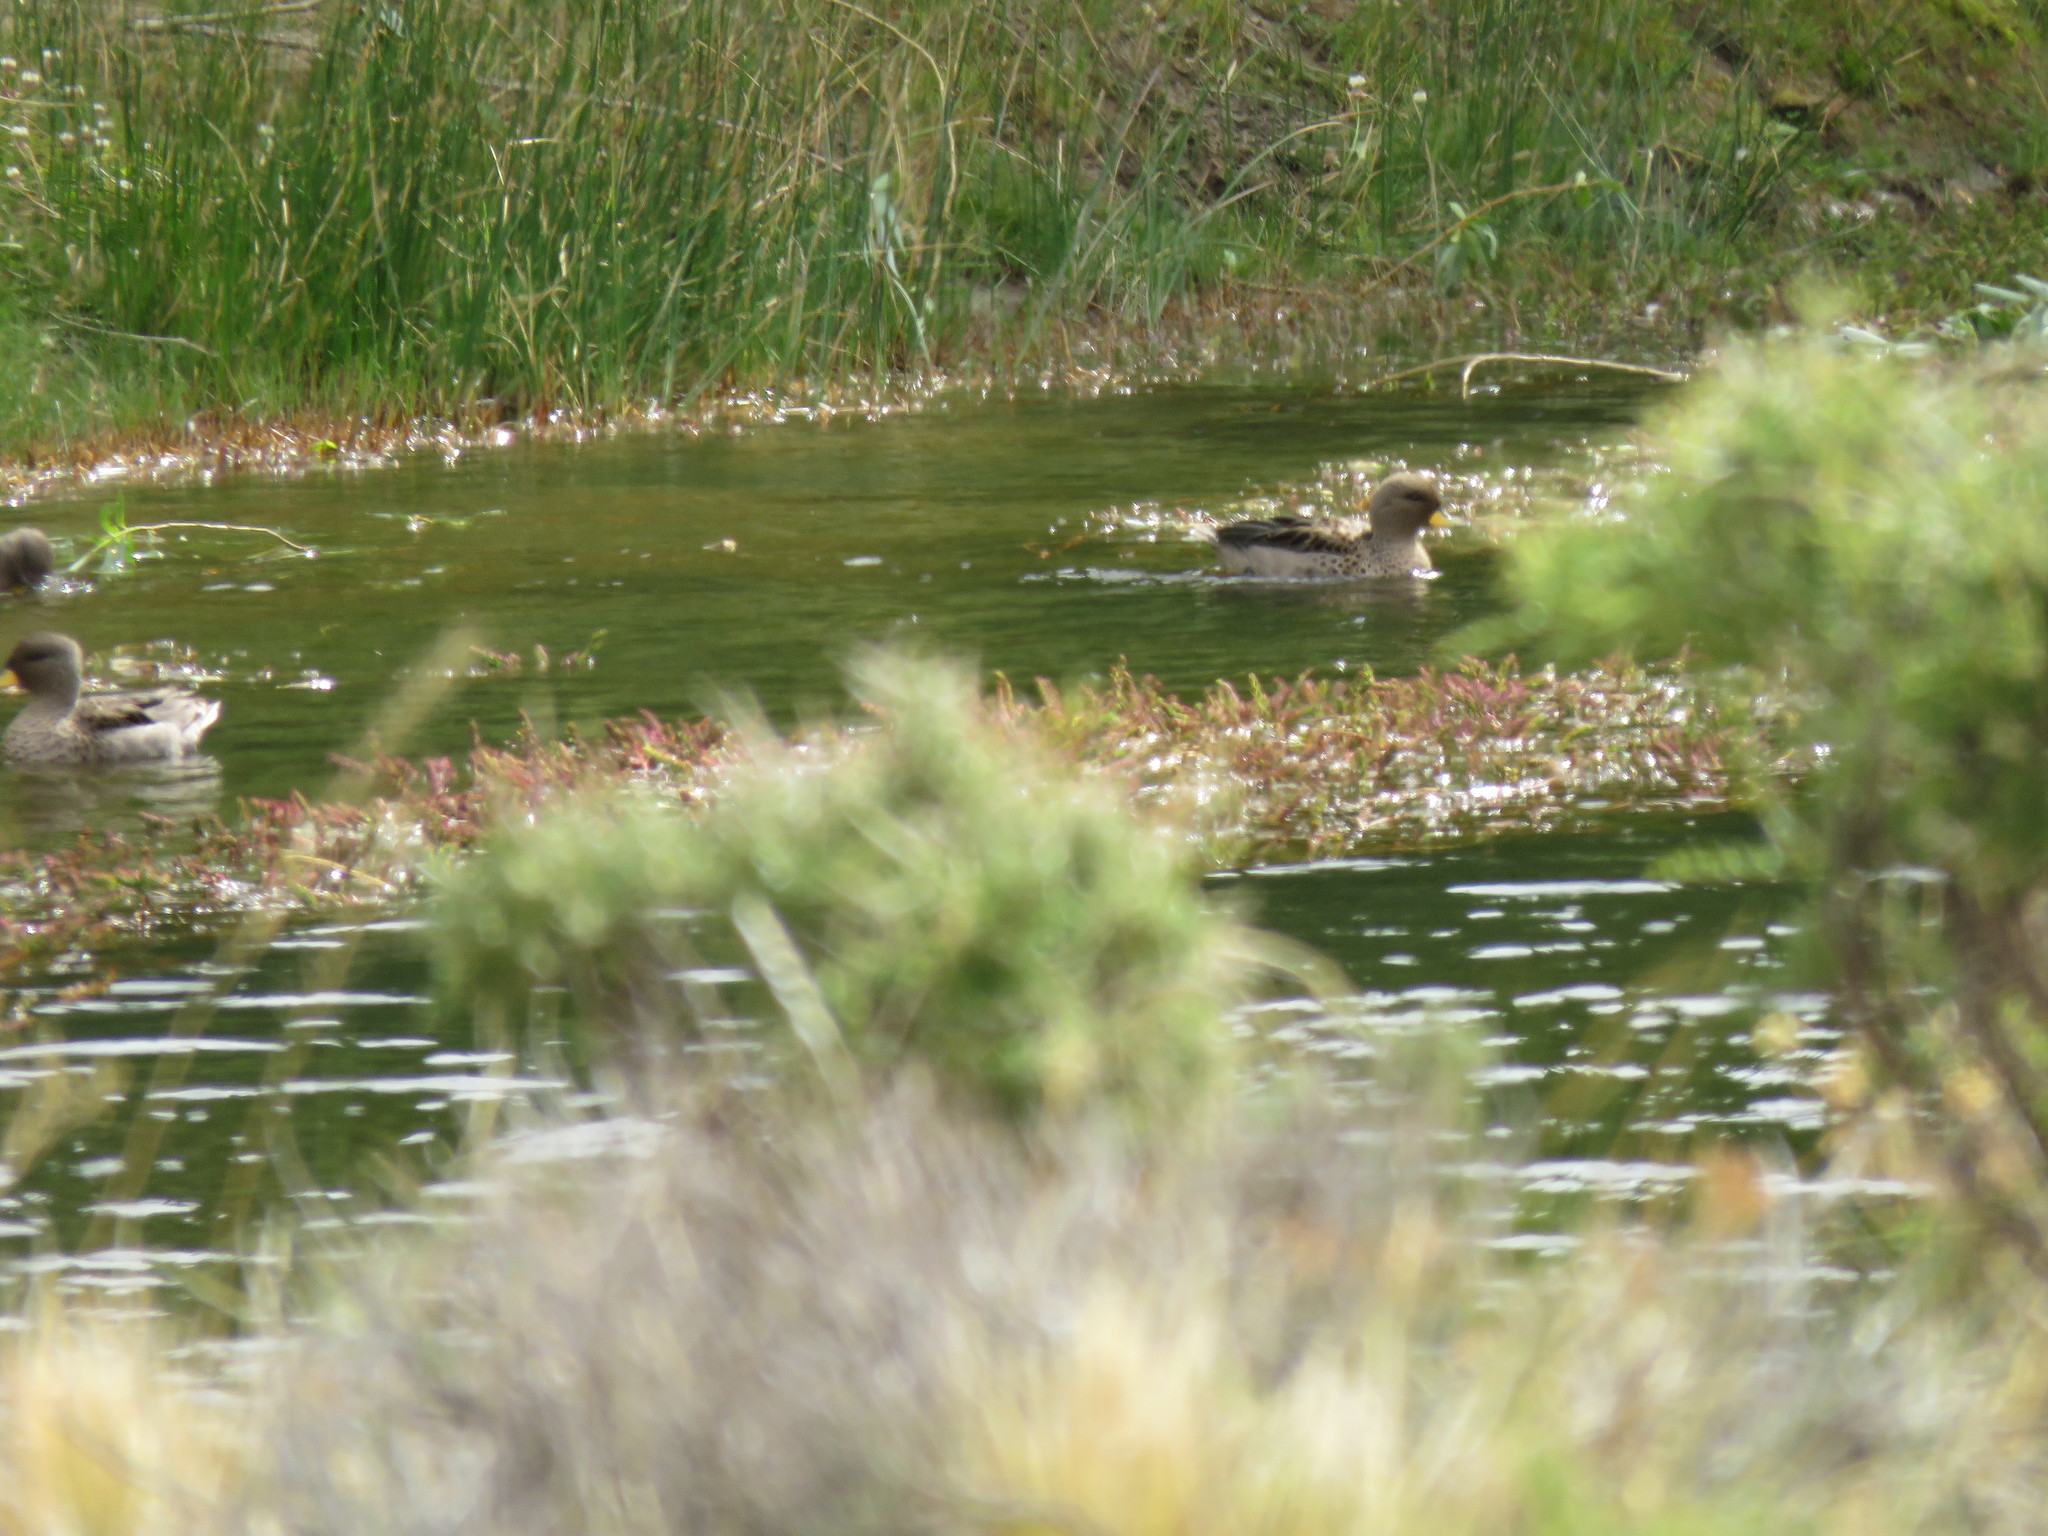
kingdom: Animalia
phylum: Chordata
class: Aves
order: Anseriformes
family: Anatidae
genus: Anas
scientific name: Anas flavirostris
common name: Yellow-billed teal
